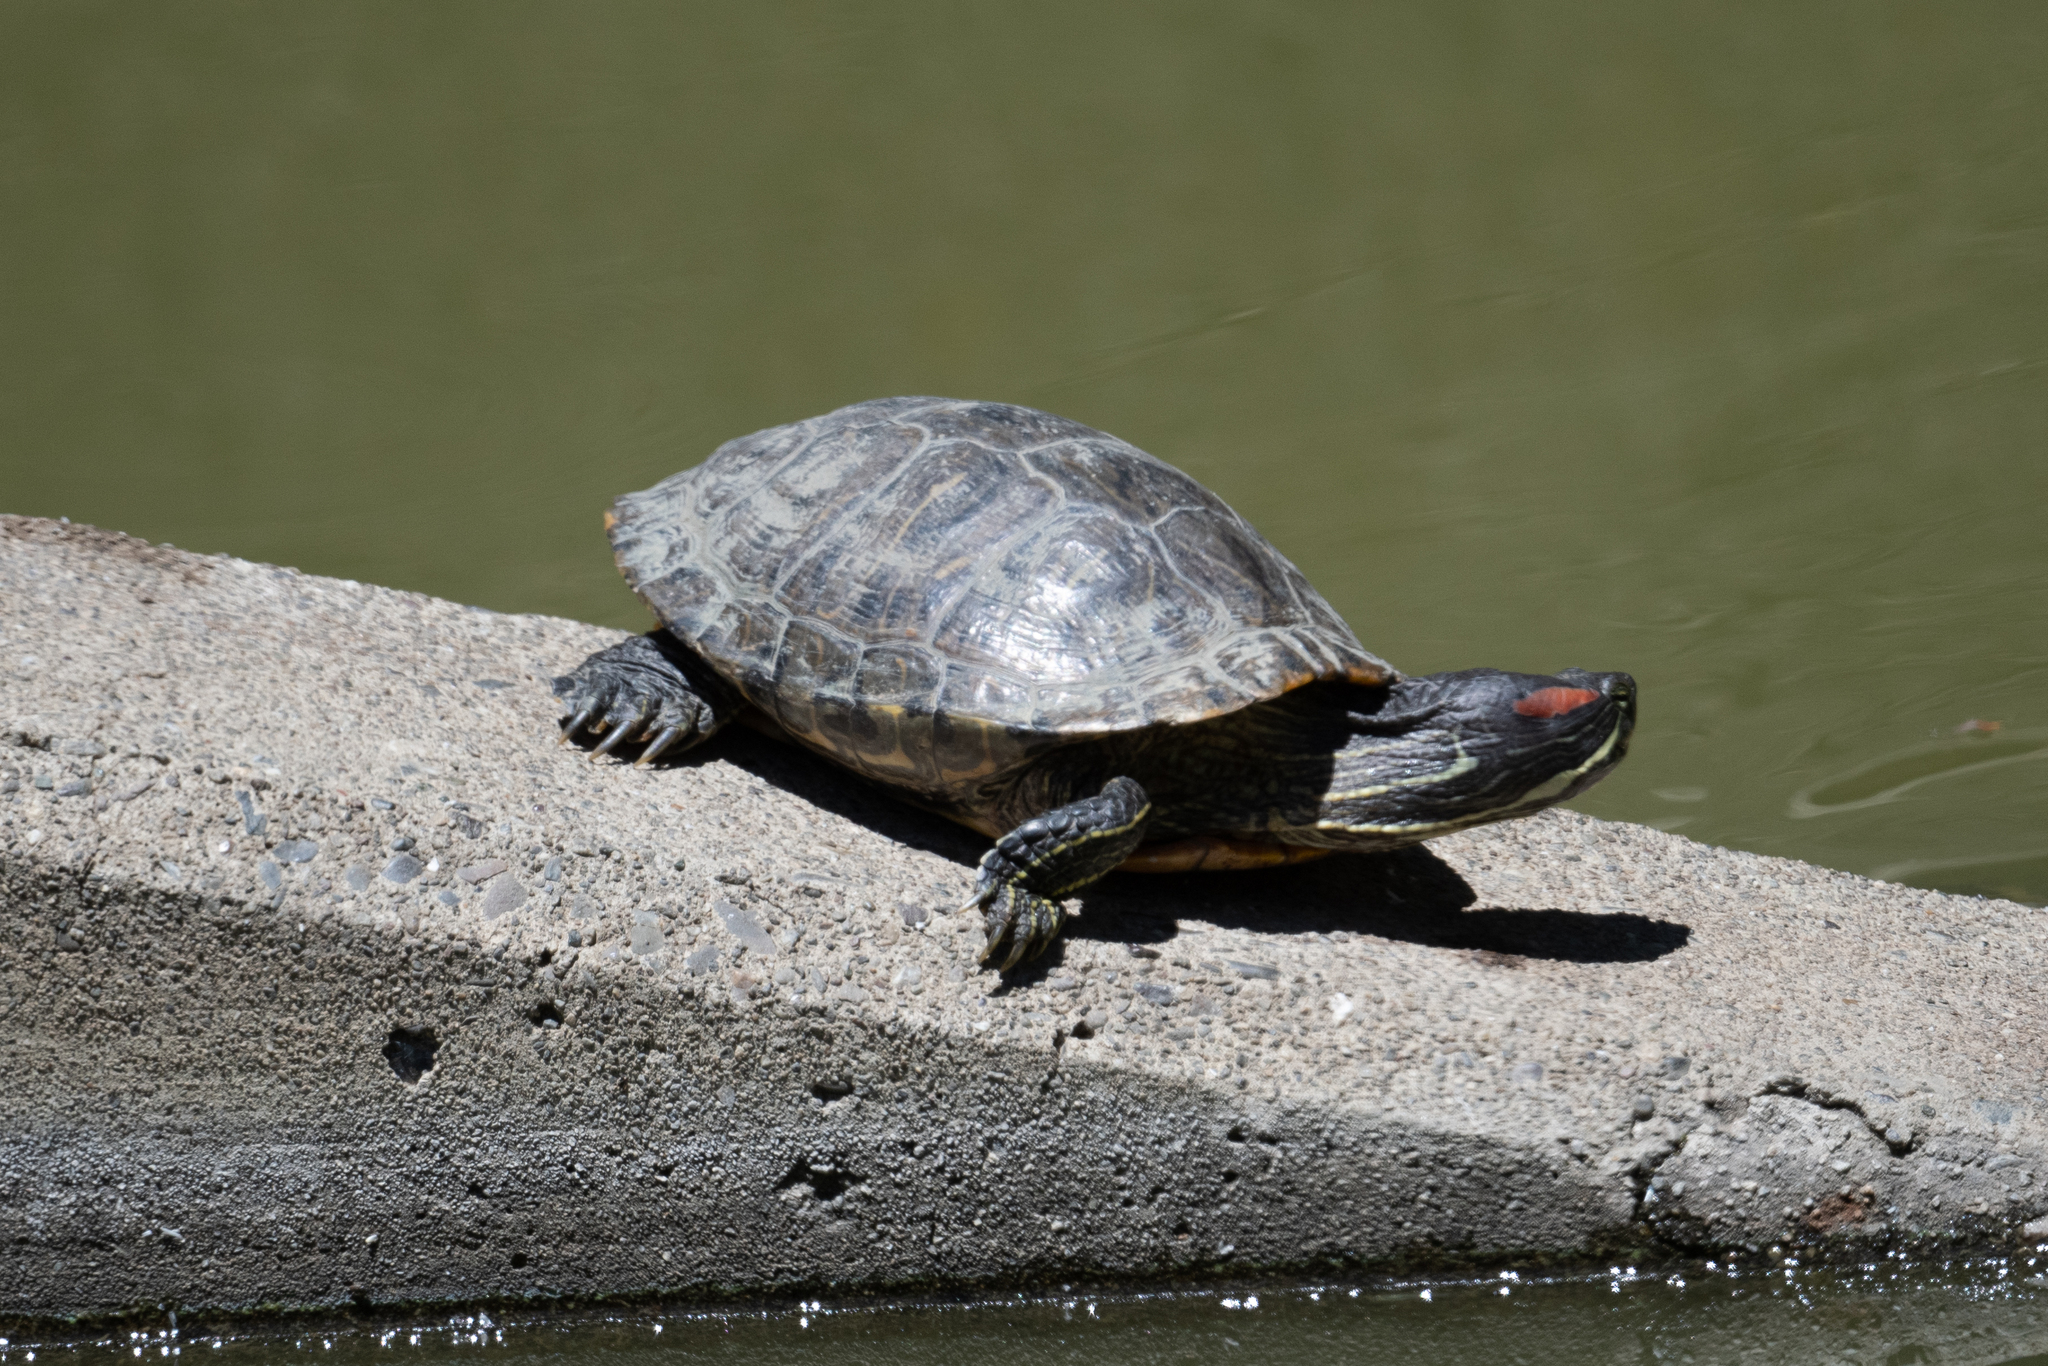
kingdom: Animalia
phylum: Chordata
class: Testudines
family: Emydidae
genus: Trachemys
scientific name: Trachemys scripta
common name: Slider
